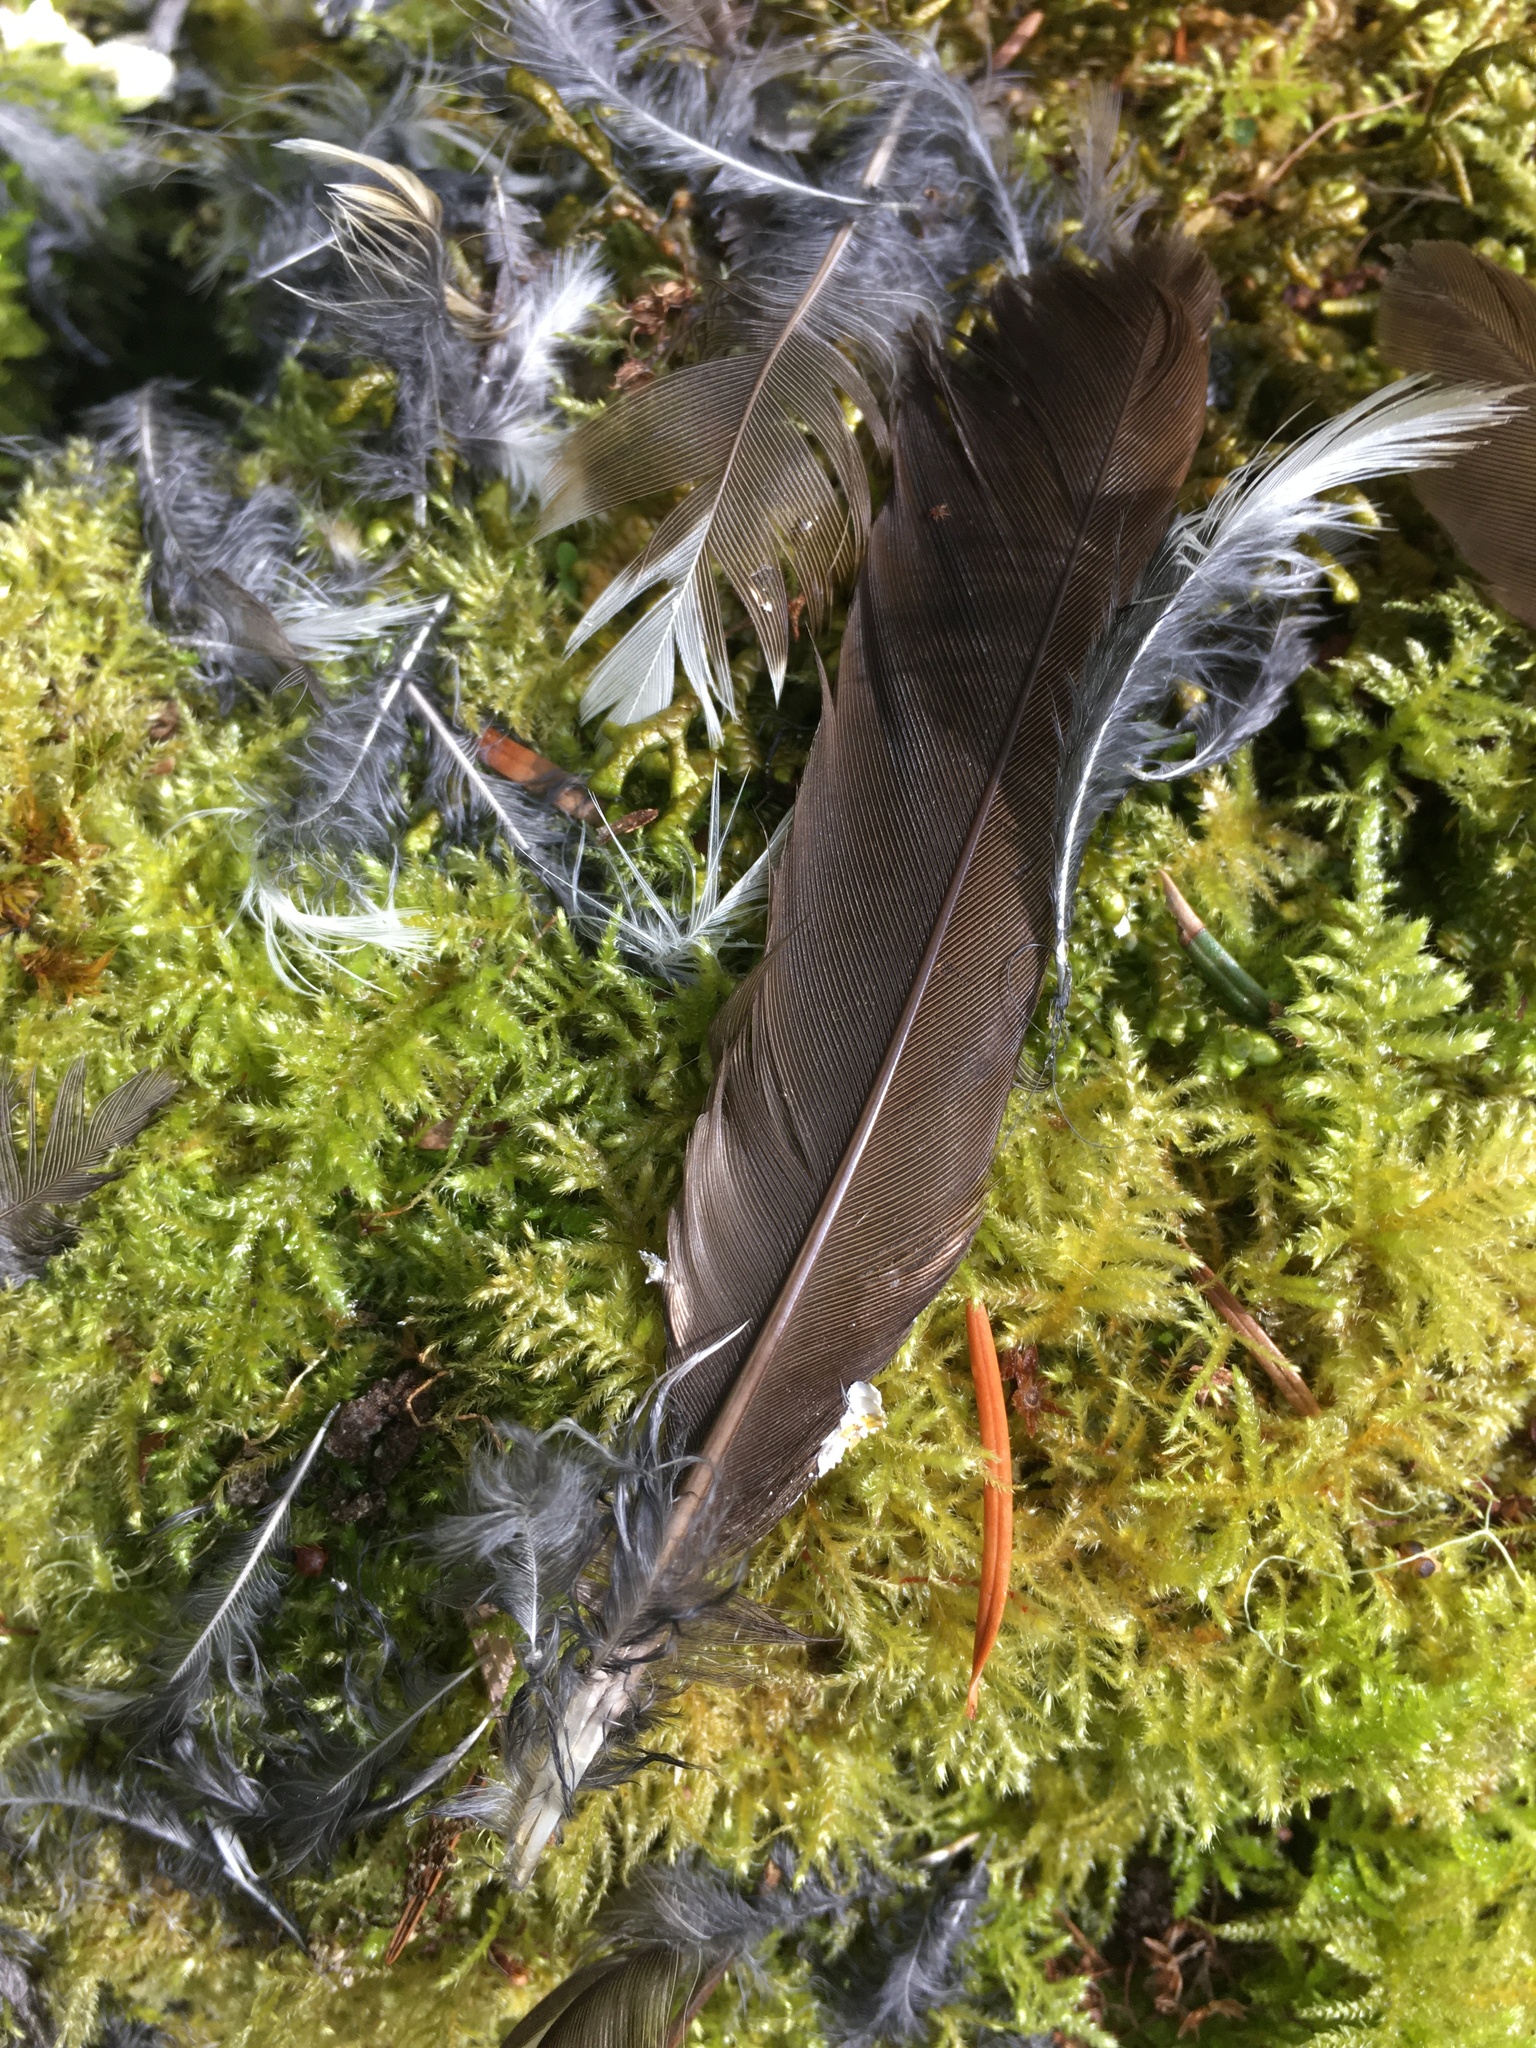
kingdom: Animalia
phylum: Chordata
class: Aves
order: Passeriformes
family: Turdidae
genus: Ixoreus
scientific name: Ixoreus naevius
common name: Varied thrush
